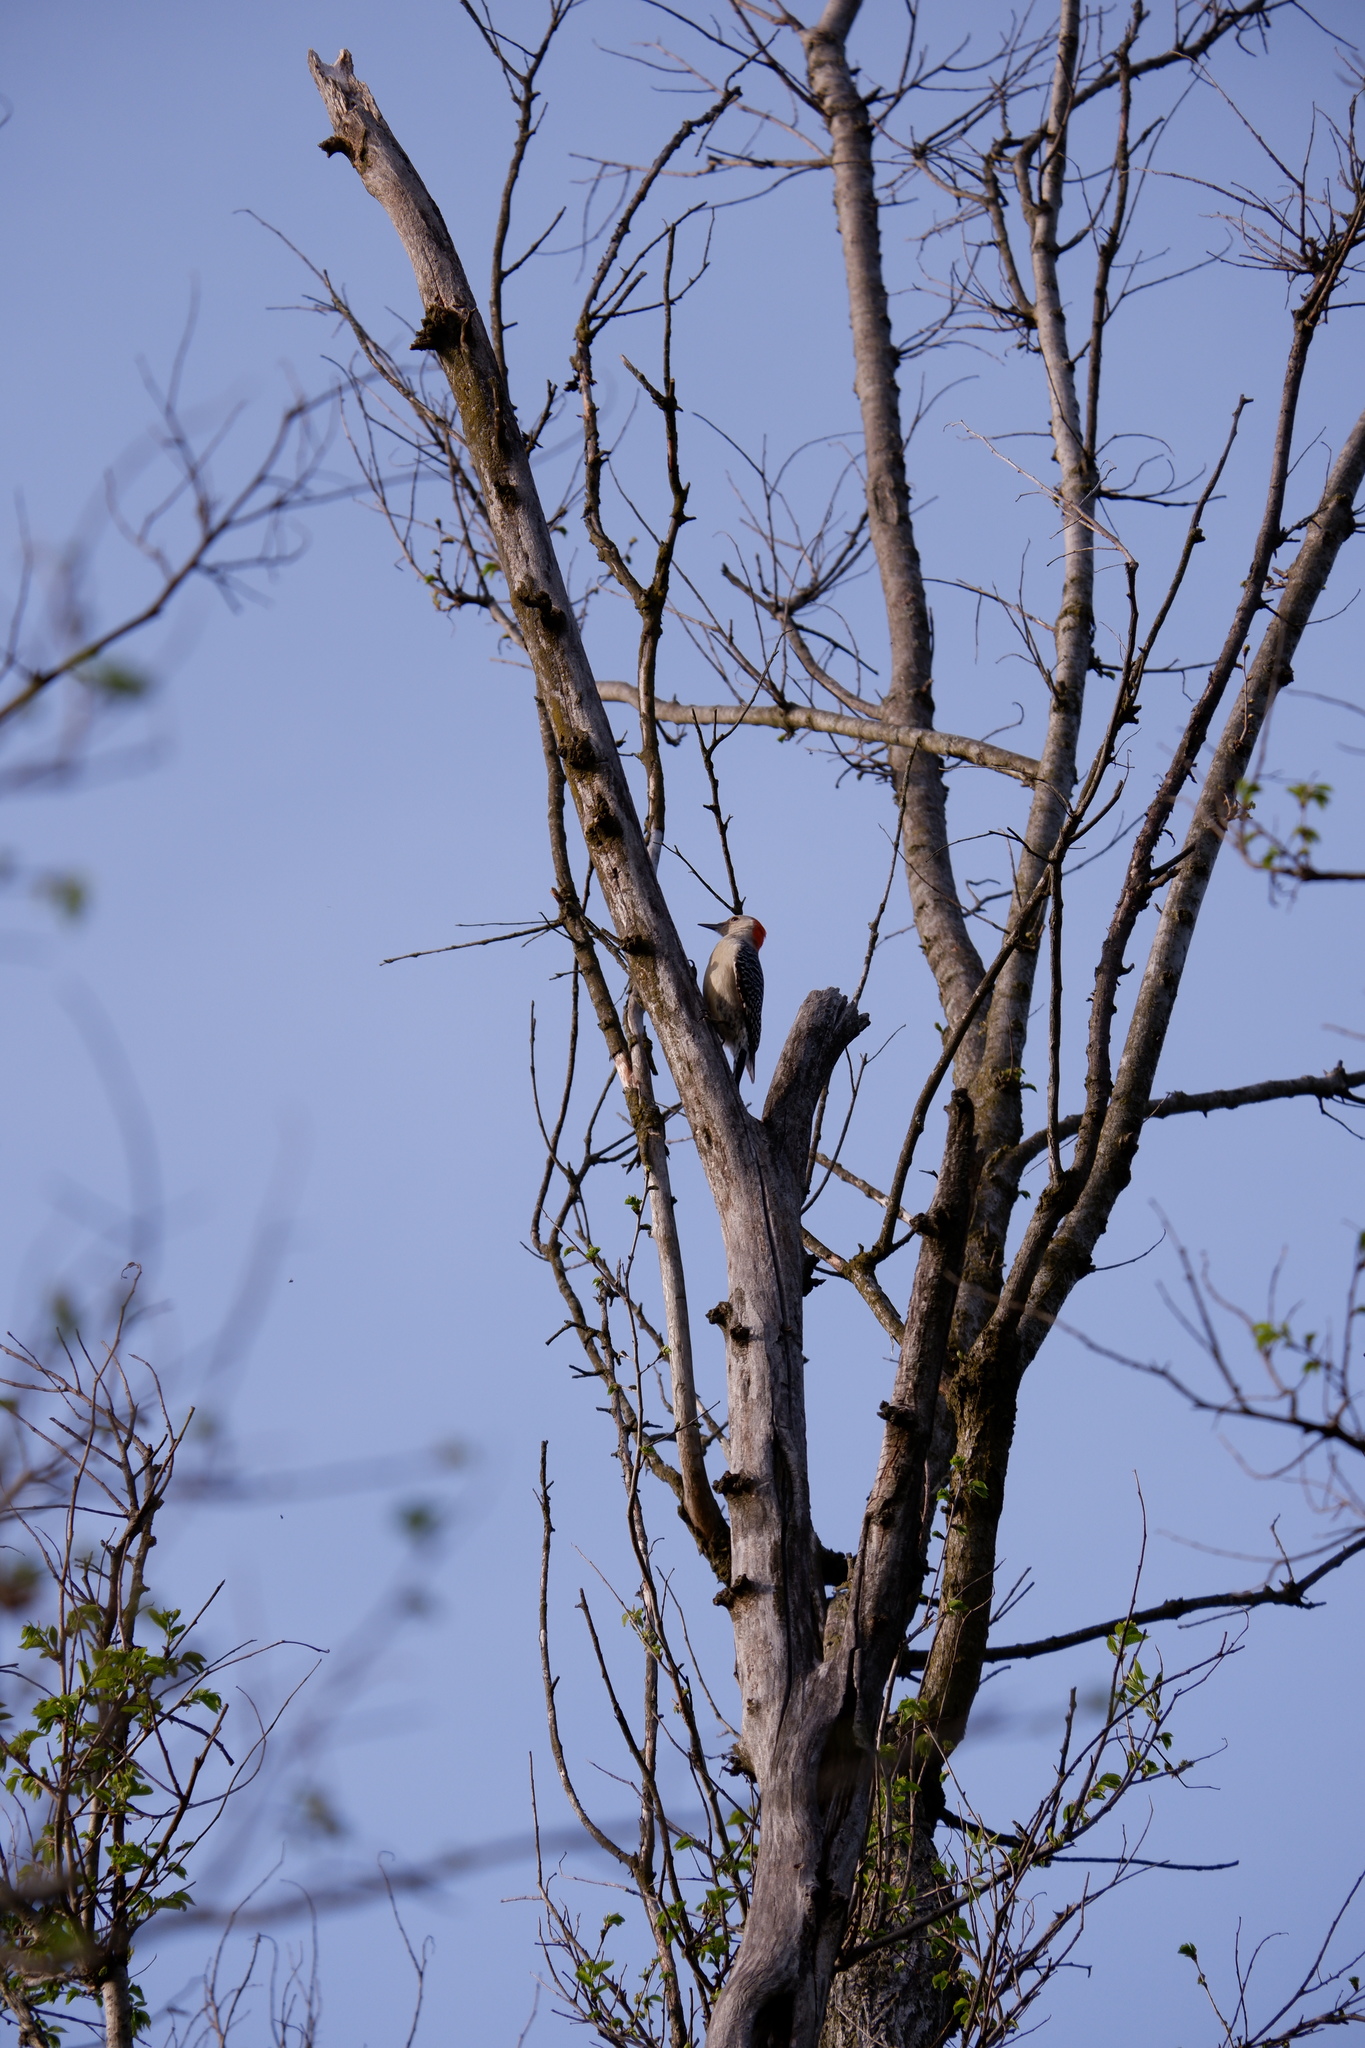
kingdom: Animalia
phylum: Chordata
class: Aves
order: Piciformes
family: Picidae
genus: Melanerpes
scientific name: Melanerpes carolinus
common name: Red-bellied woodpecker
